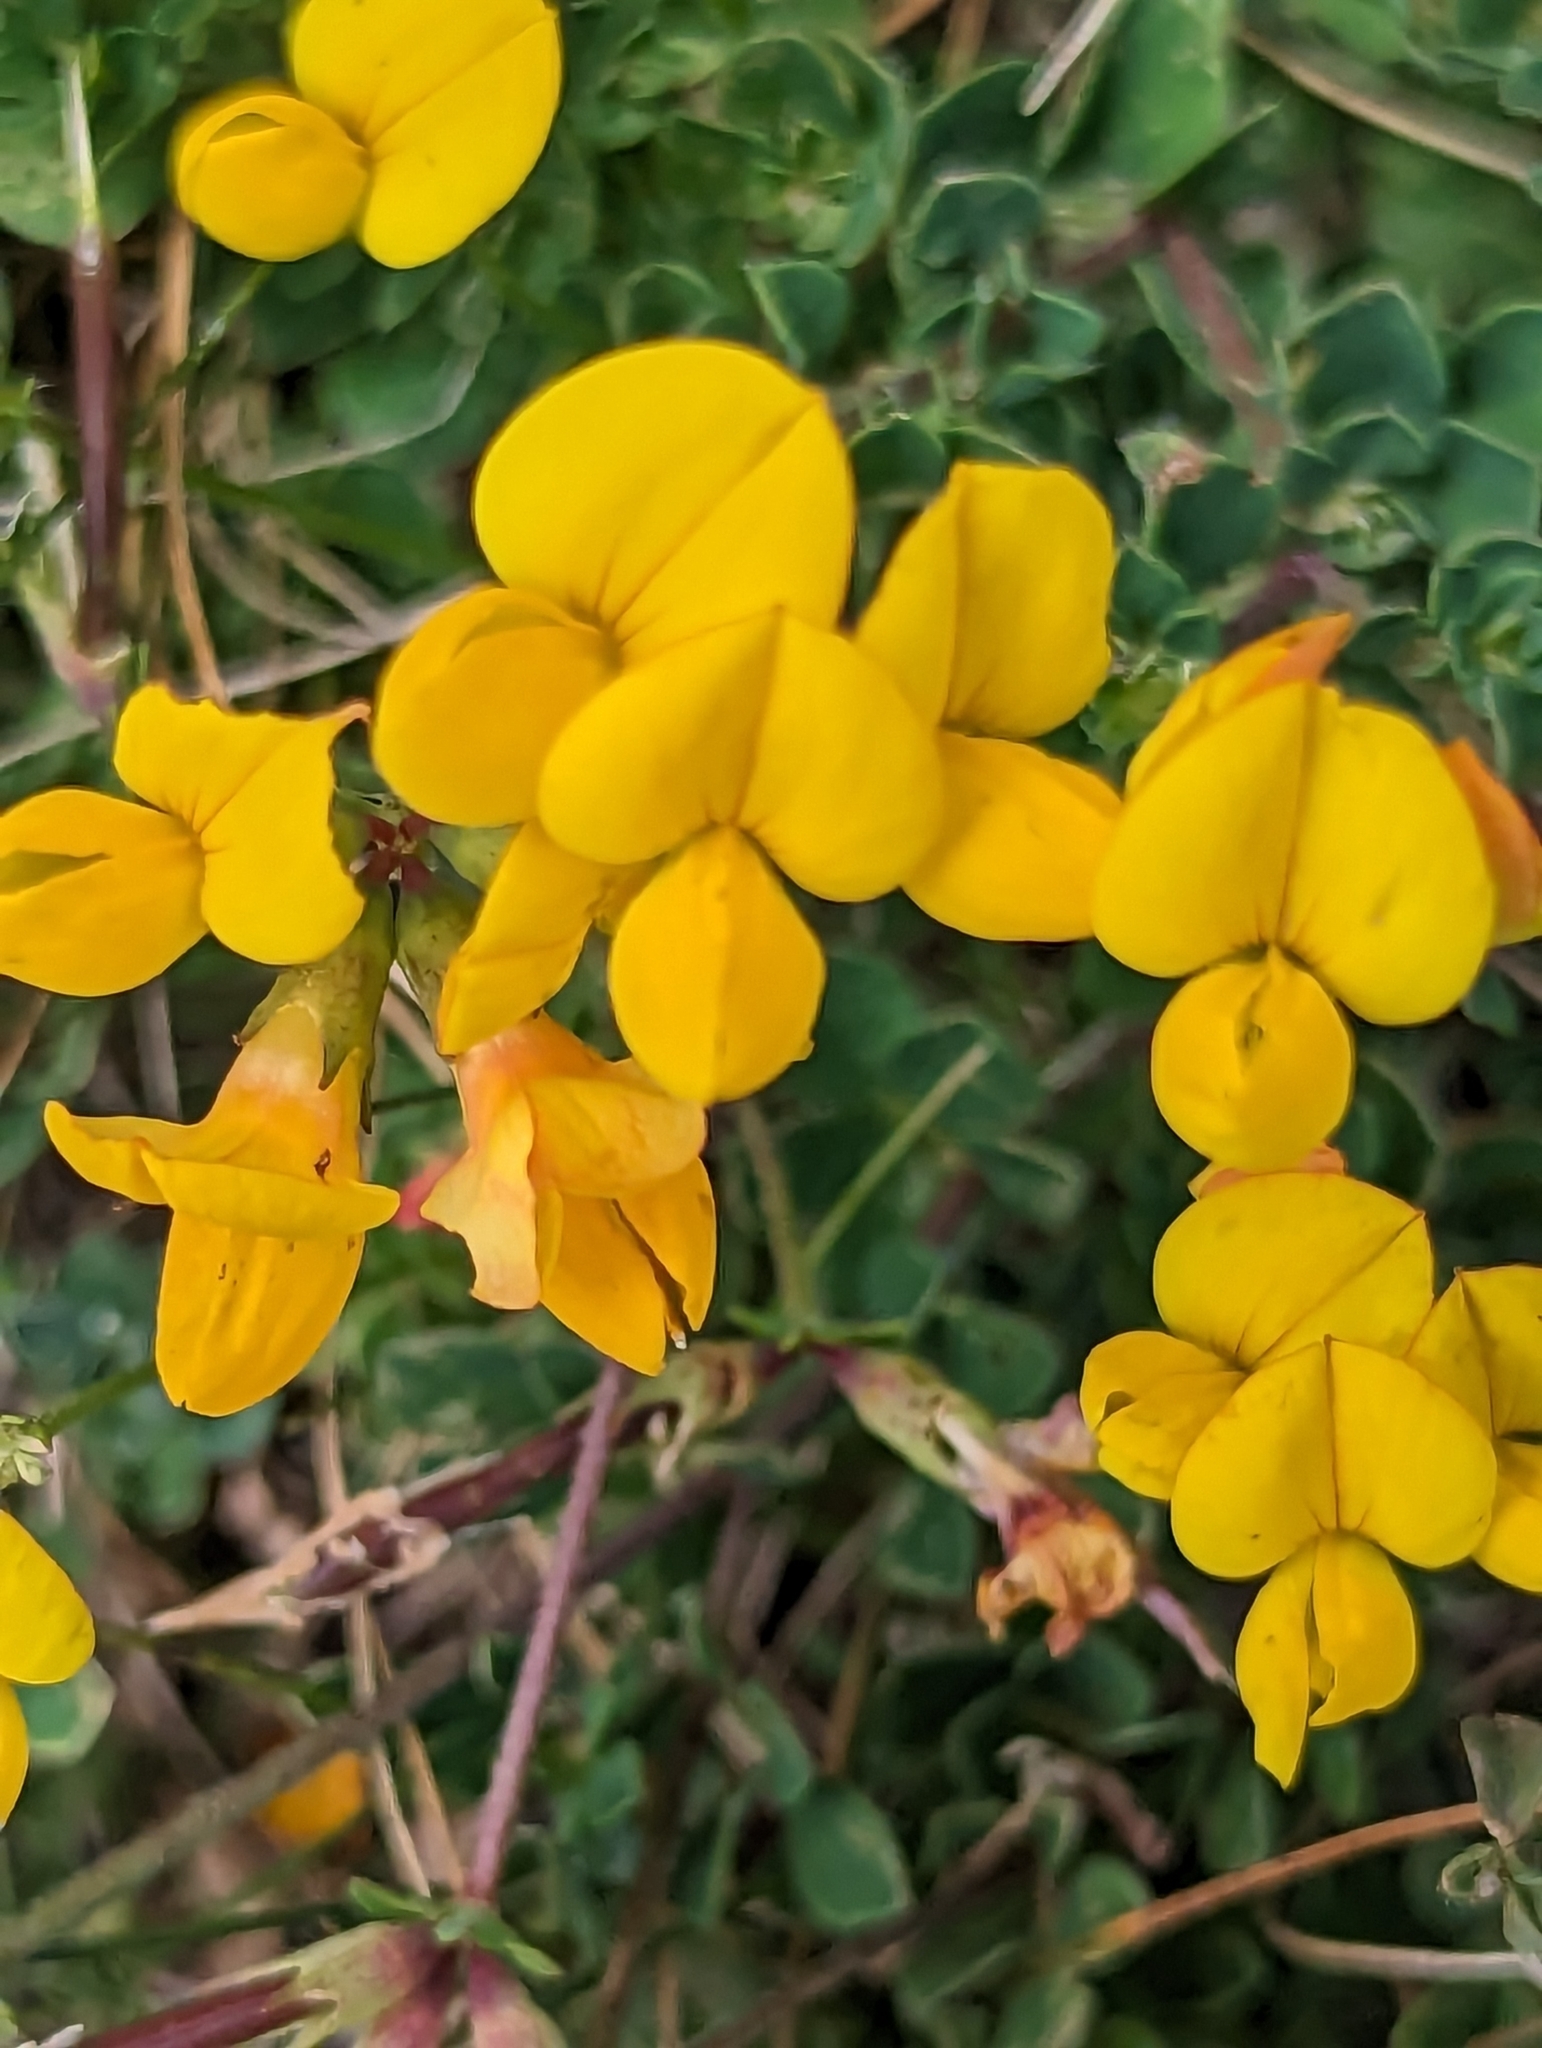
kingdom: Plantae
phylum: Tracheophyta
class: Magnoliopsida
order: Fabales
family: Fabaceae
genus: Lotus
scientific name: Lotus corniculatus
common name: Common bird's-foot-trefoil
